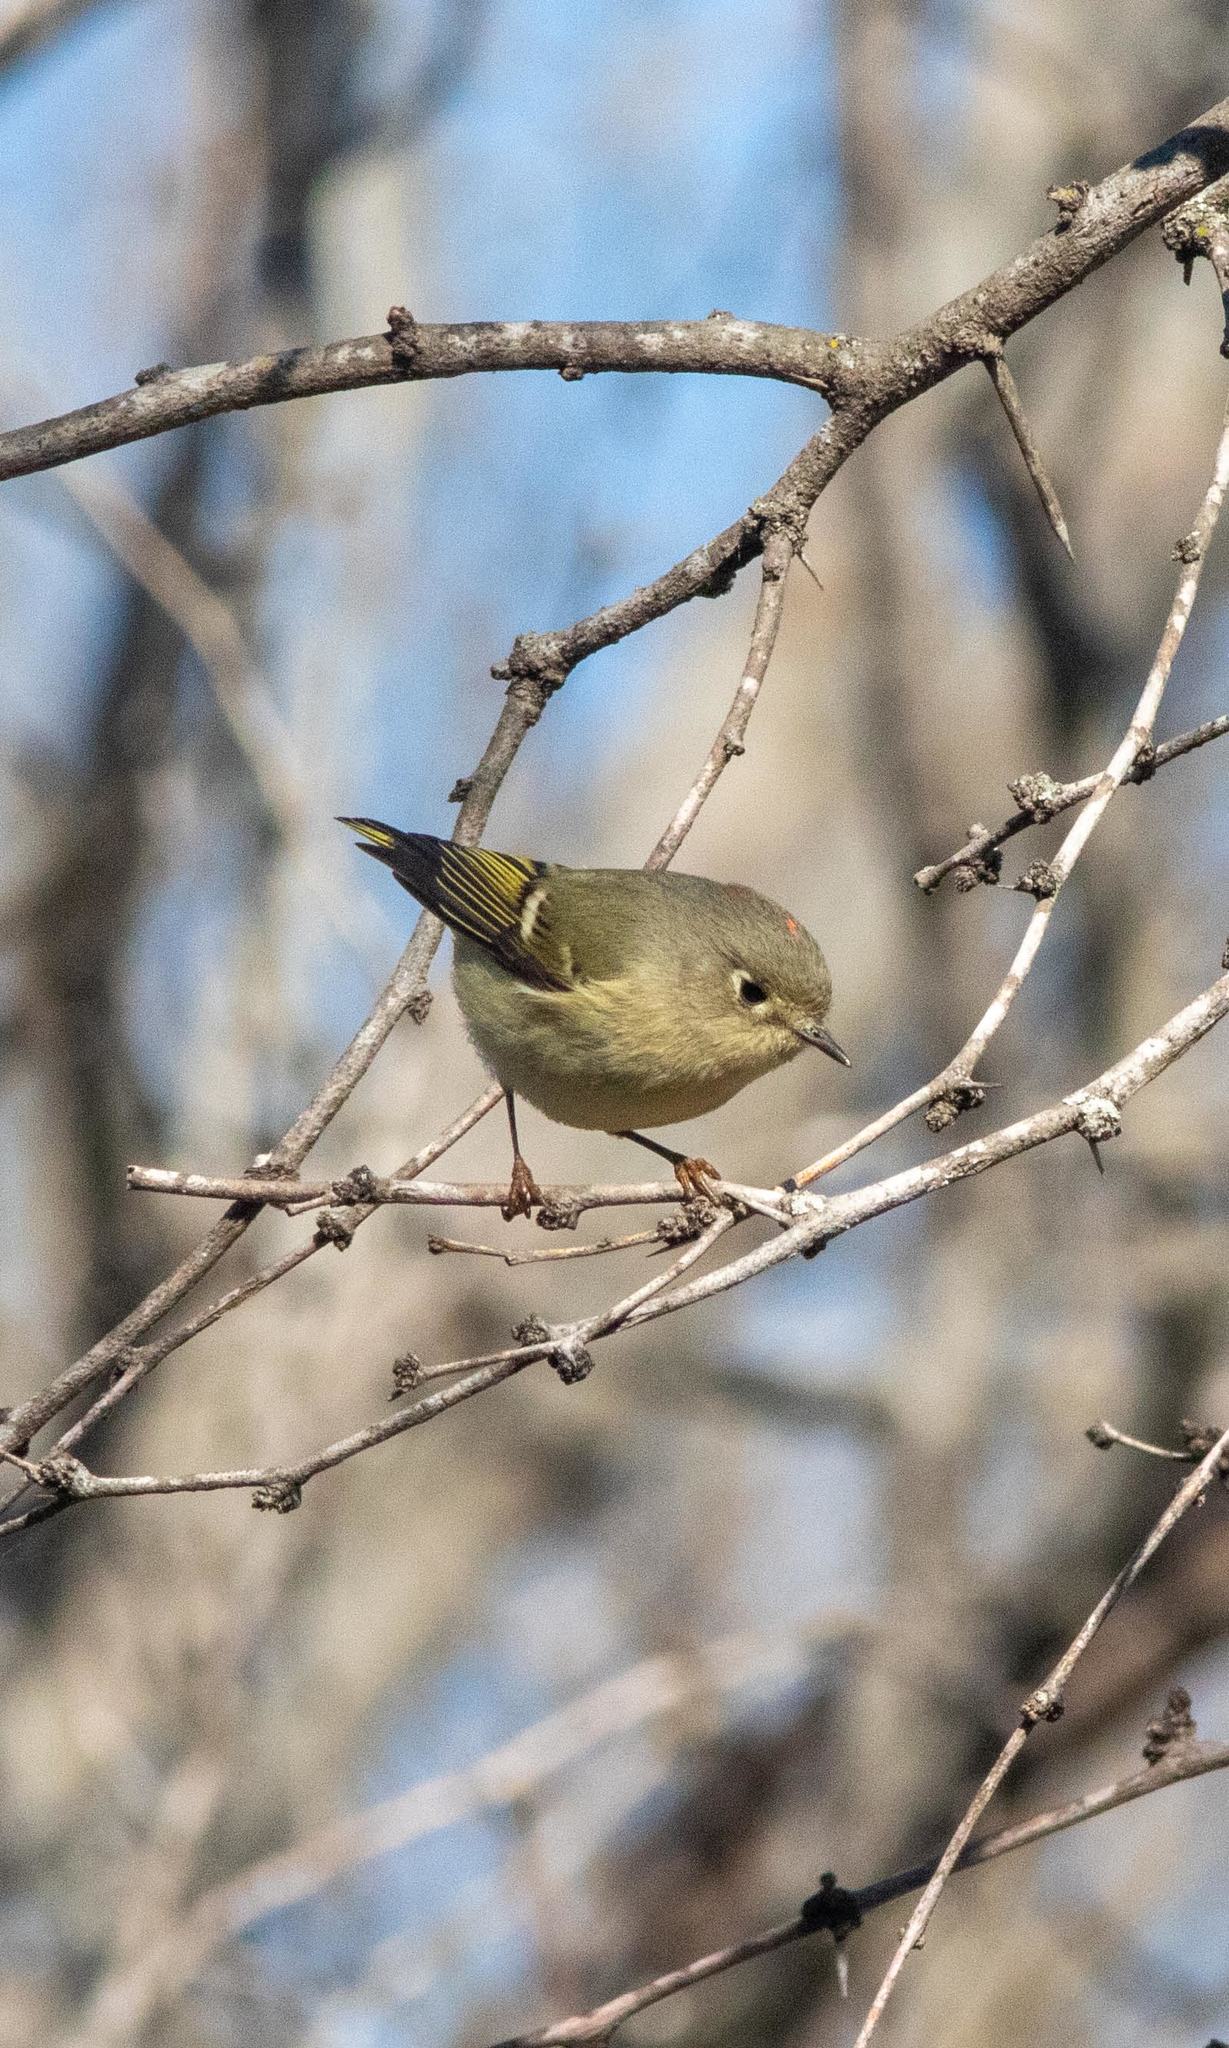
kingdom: Animalia
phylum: Chordata
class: Aves
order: Passeriformes
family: Regulidae
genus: Regulus
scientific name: Regulus calendula
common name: Ruby-crowned kinglet
